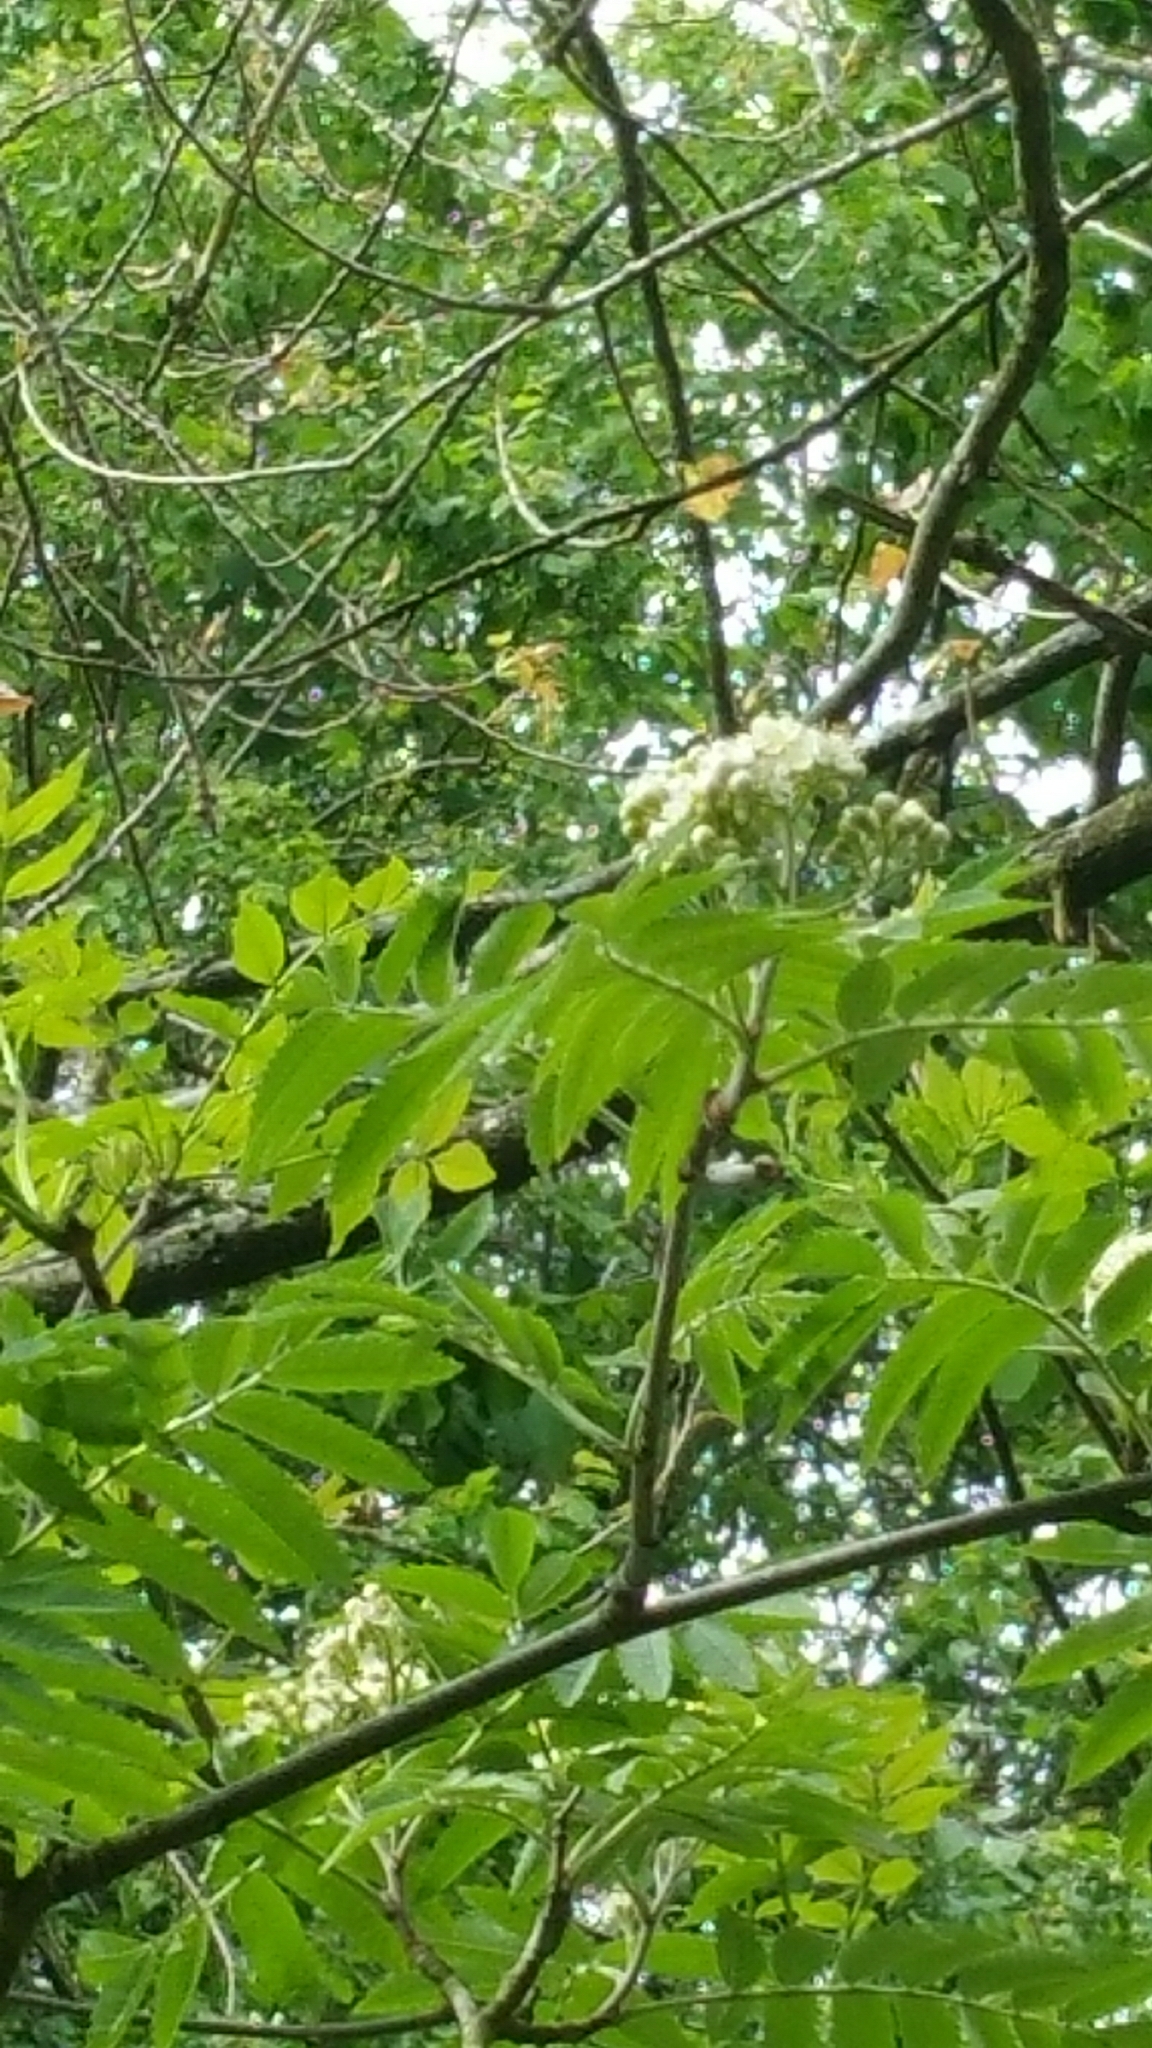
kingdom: Plantae
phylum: Tracheophyta
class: Magnoliopsida
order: Rosales
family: Rosaceae
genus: Sorbus
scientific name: Sorbus aucuparia
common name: Rowan
